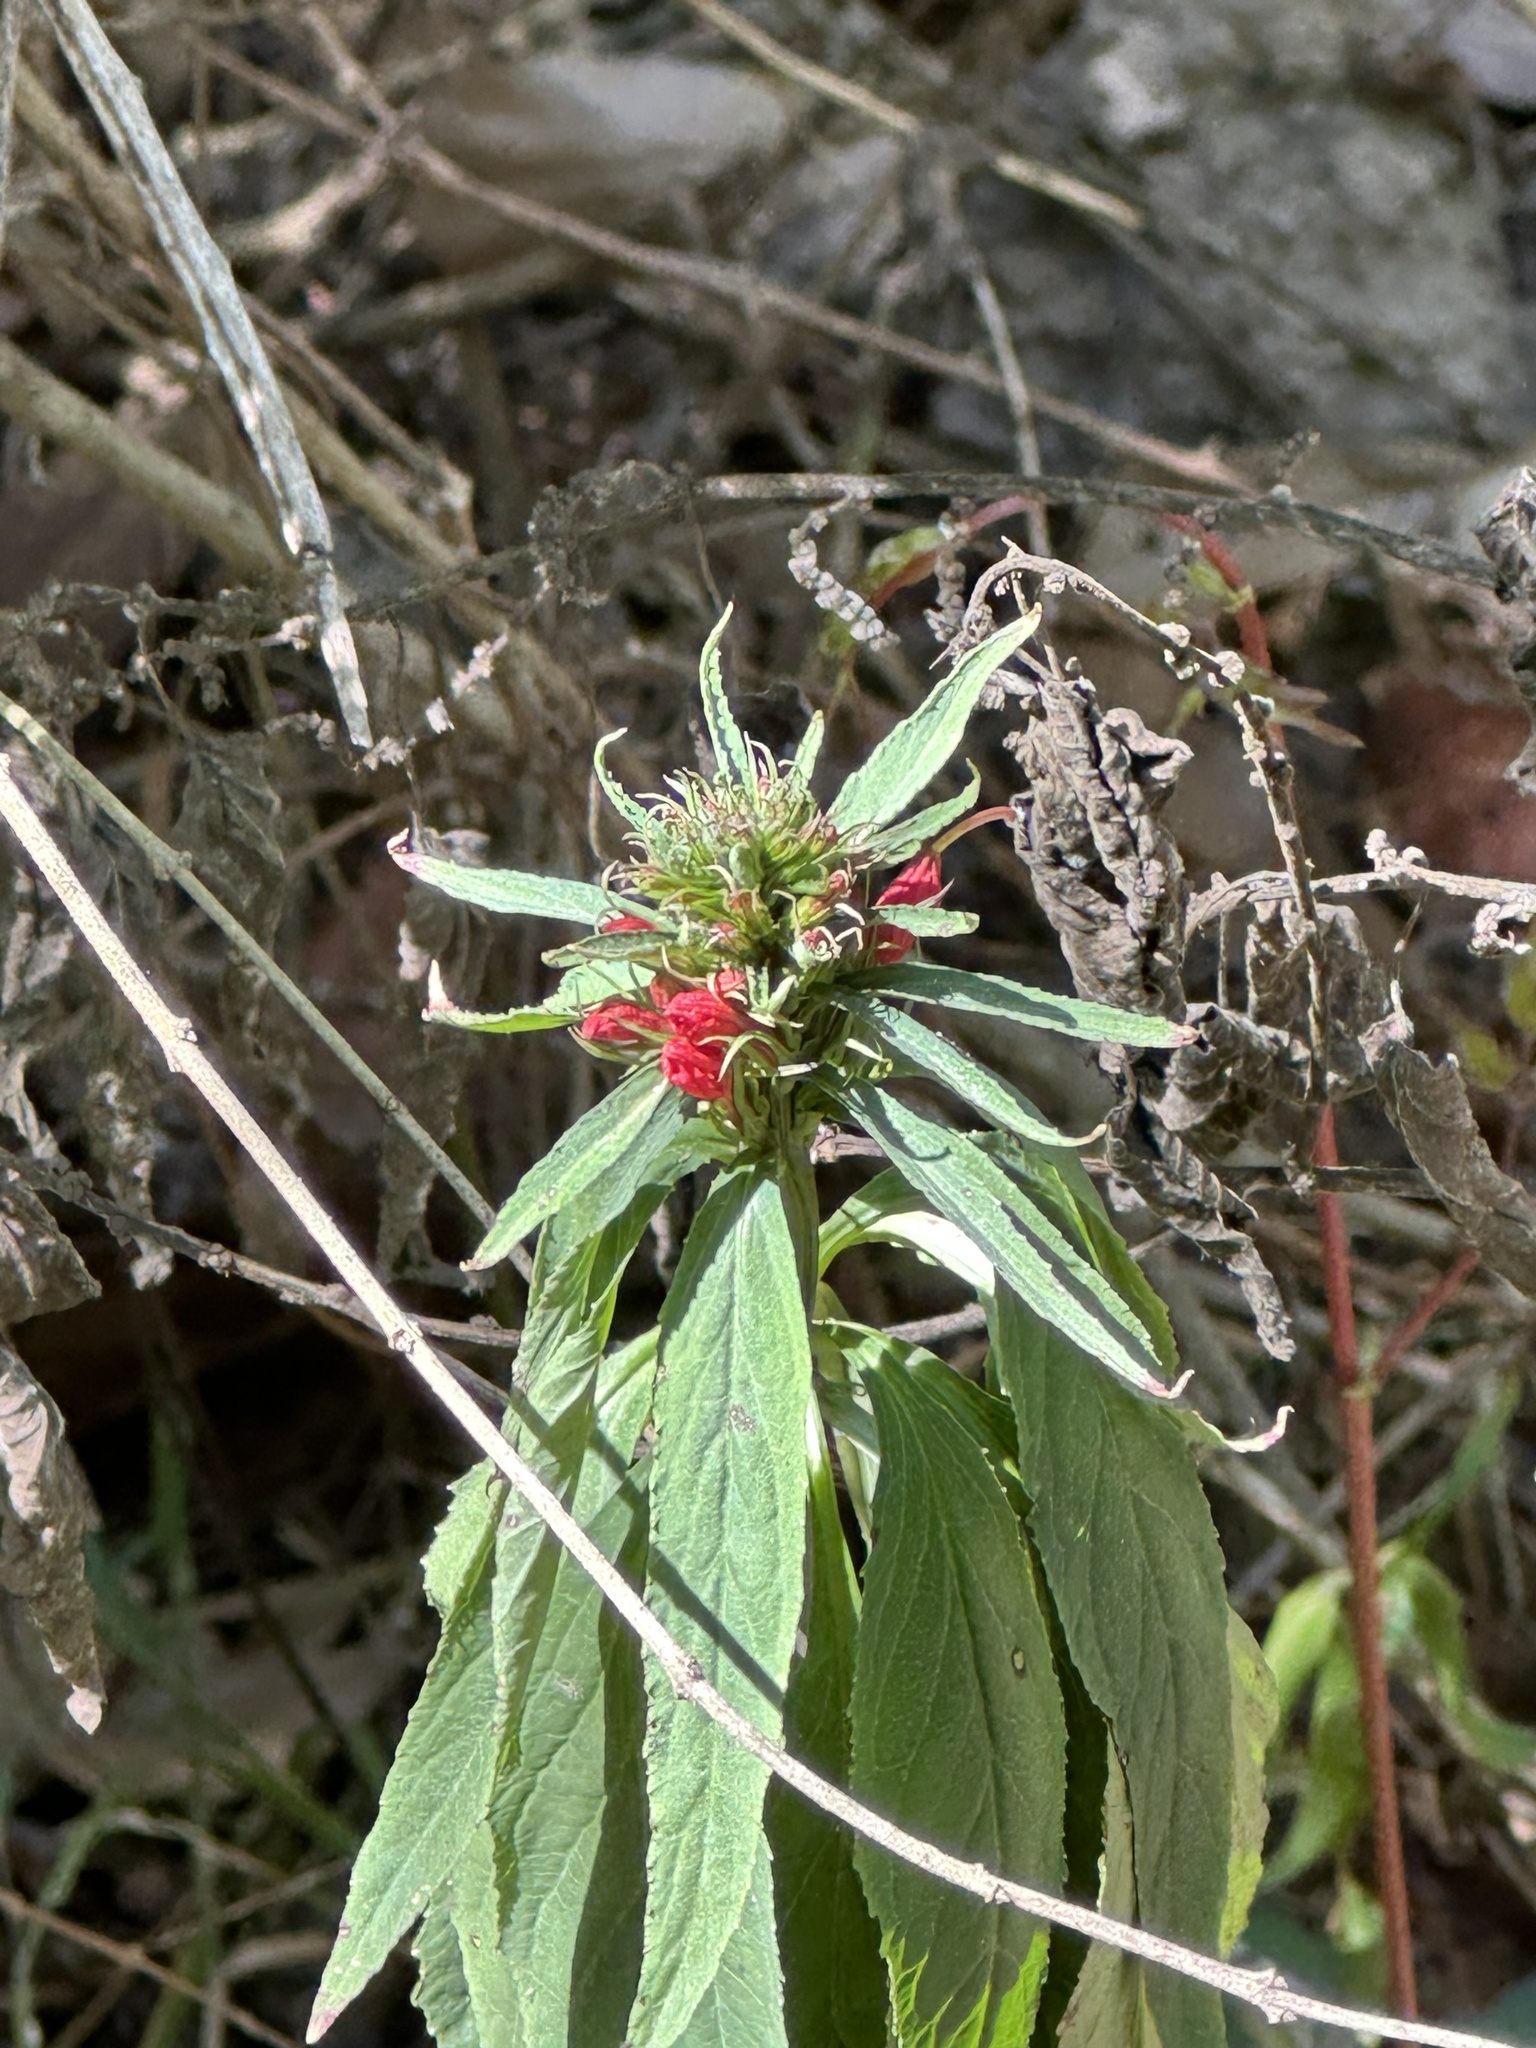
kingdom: Plantae
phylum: Tracheophyta
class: Magnoliopsida
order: Asterales
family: Campanulaceae
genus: Lobelia
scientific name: Lobelia cardinalis
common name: Cardinal flower
